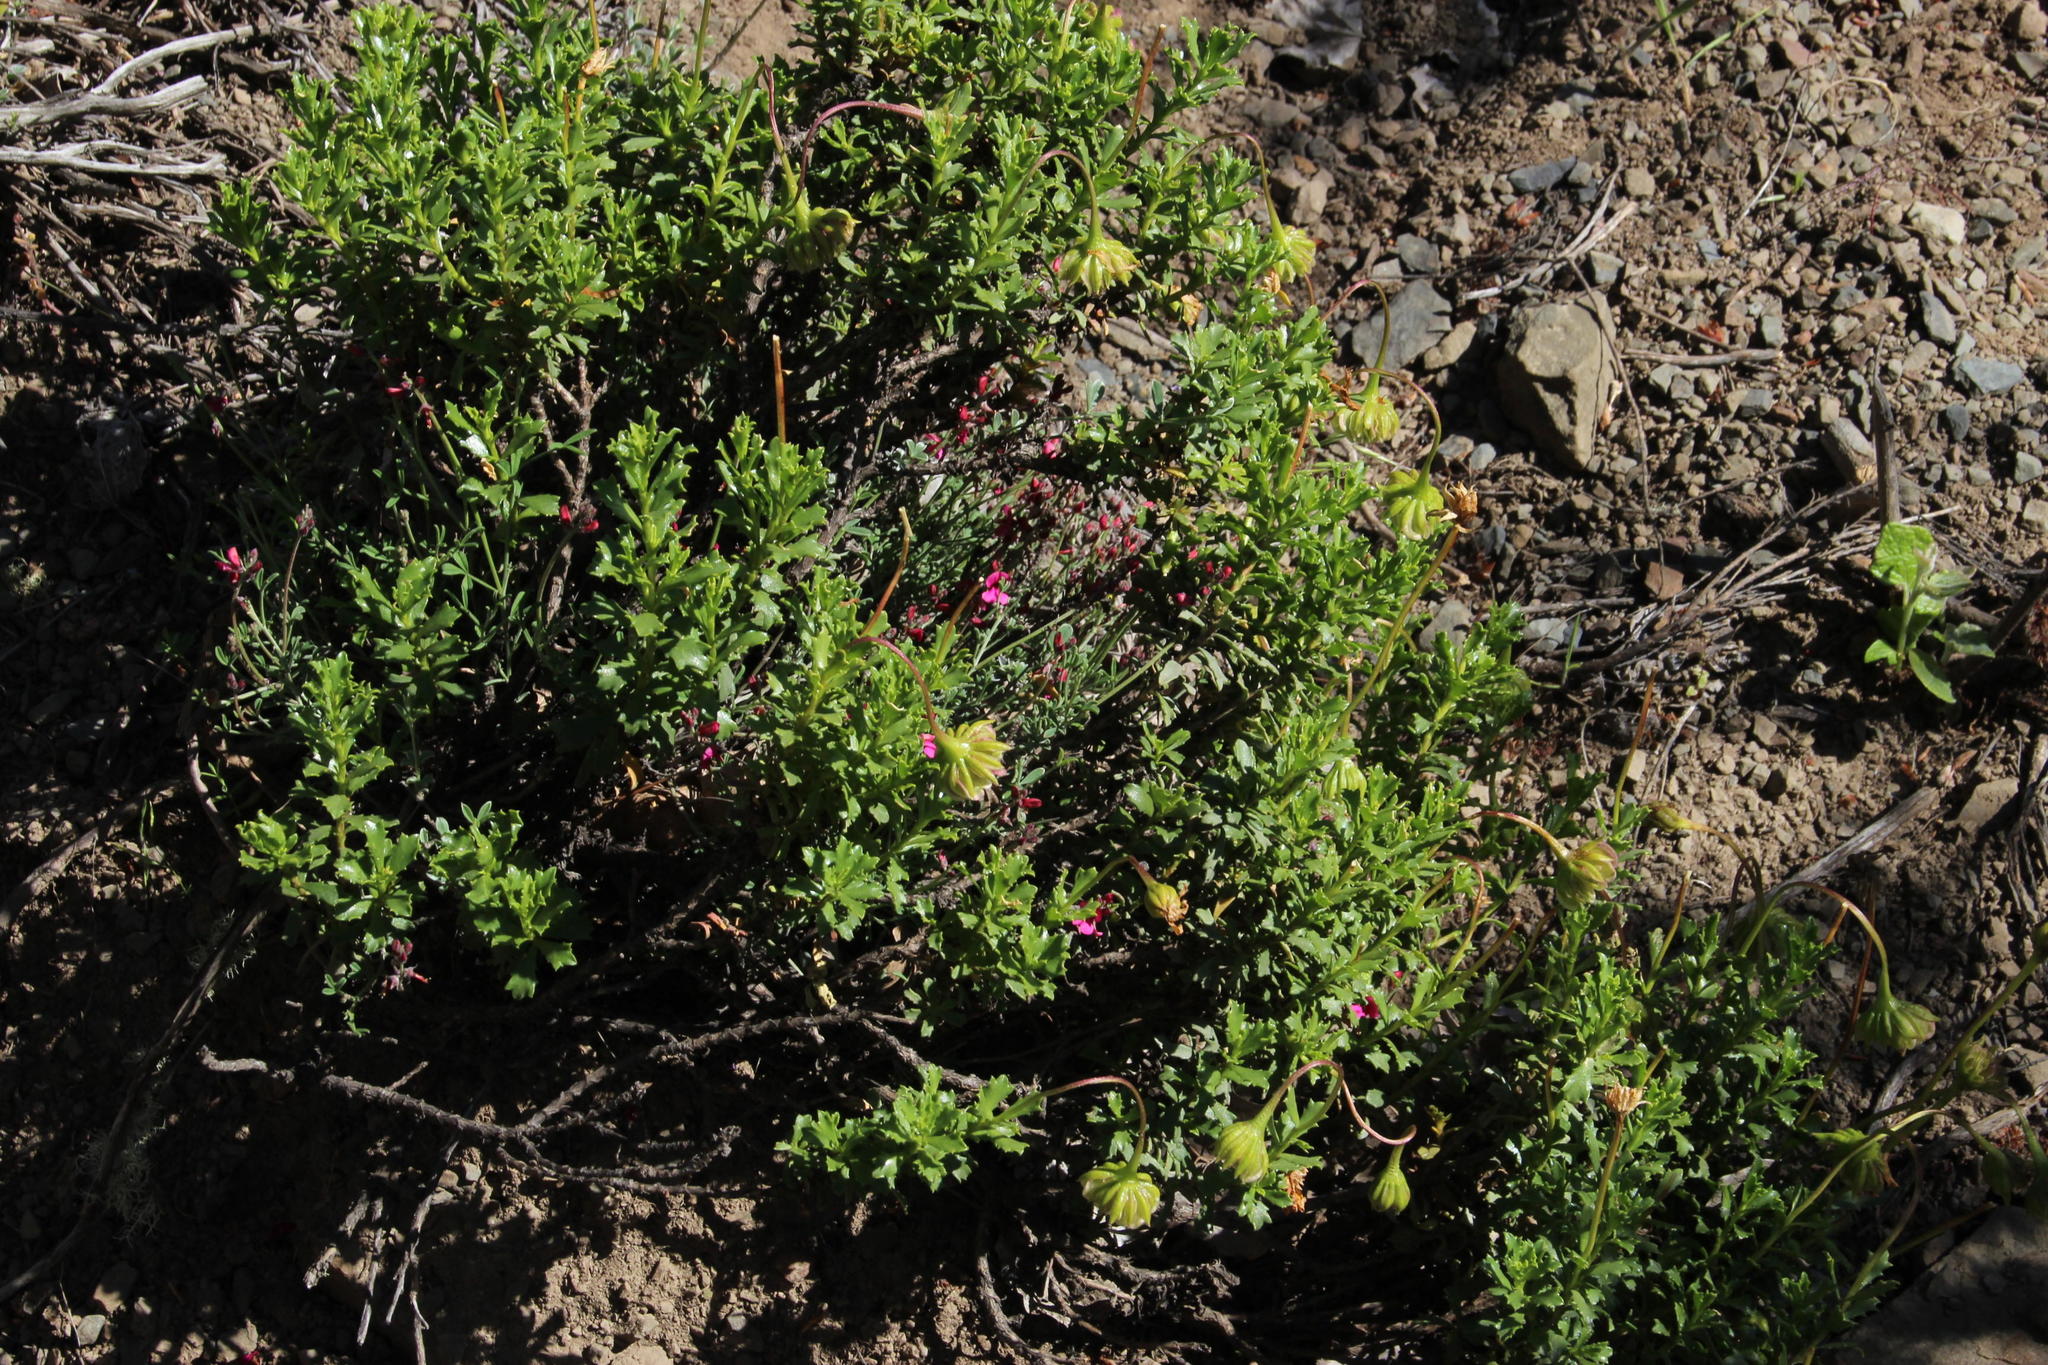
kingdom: Plantae
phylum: Tracheophyta
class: Magnoliopsida
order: Asterales
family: Asteraceae
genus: Dimorphotheca
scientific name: Dimorphotheca cuneata
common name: Daisy
